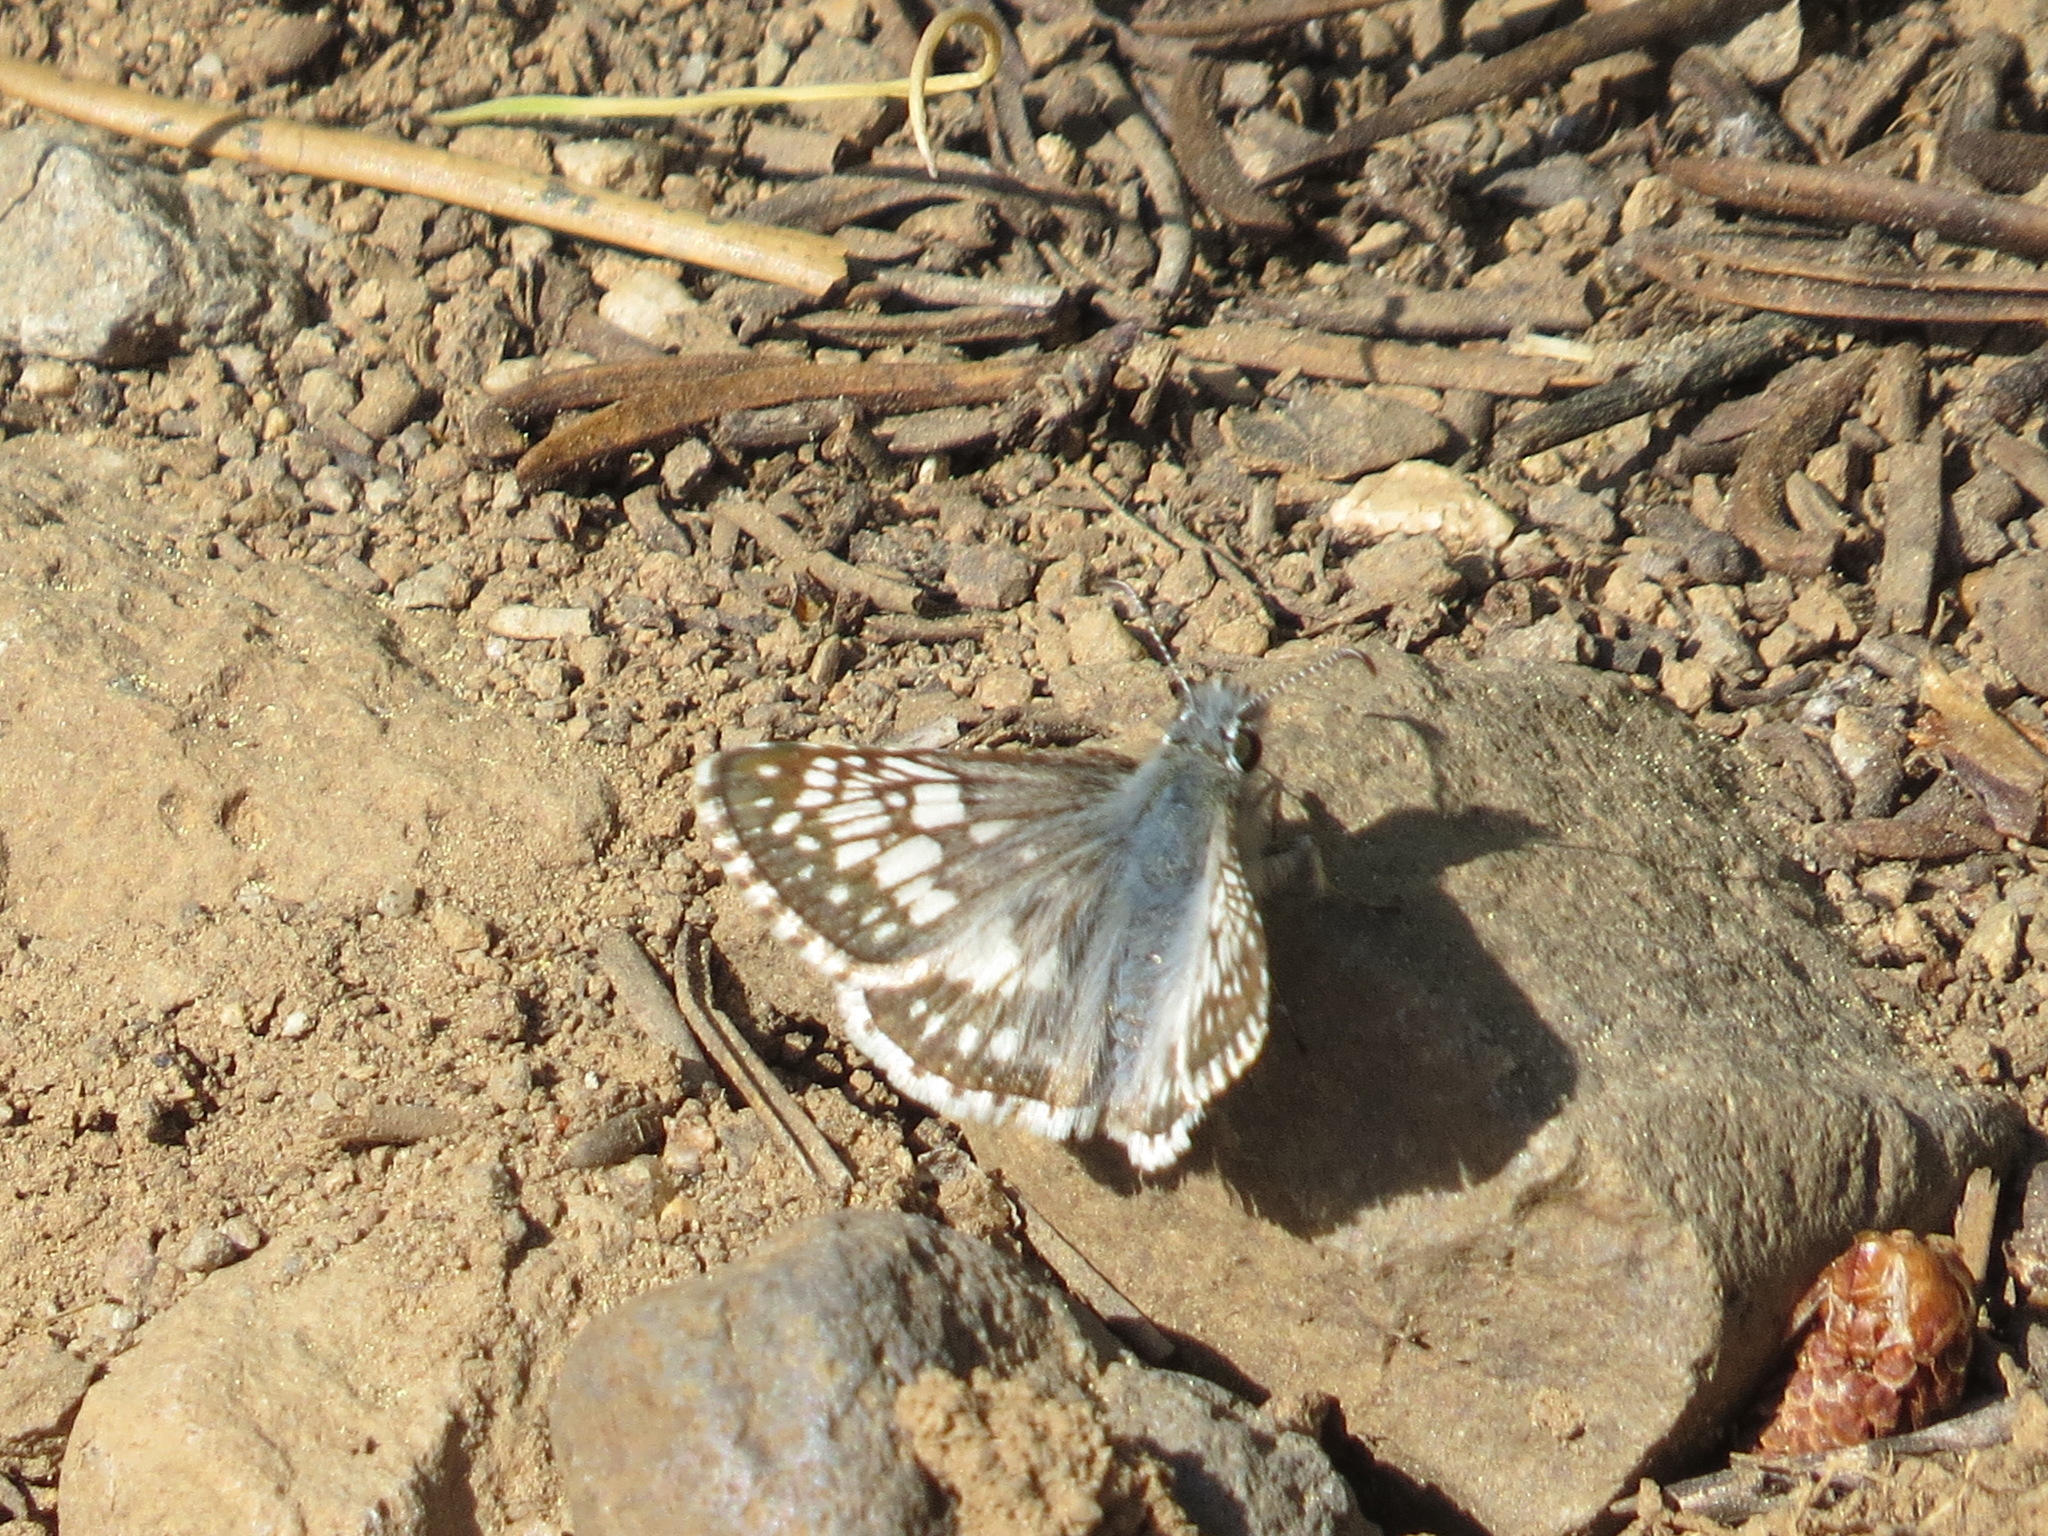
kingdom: Animalia
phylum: Arthropoda
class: Insecta
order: Lepidoptera
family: Hesperiidae
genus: Burnsius
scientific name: Burnsius communis
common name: Common checkered-skipper
